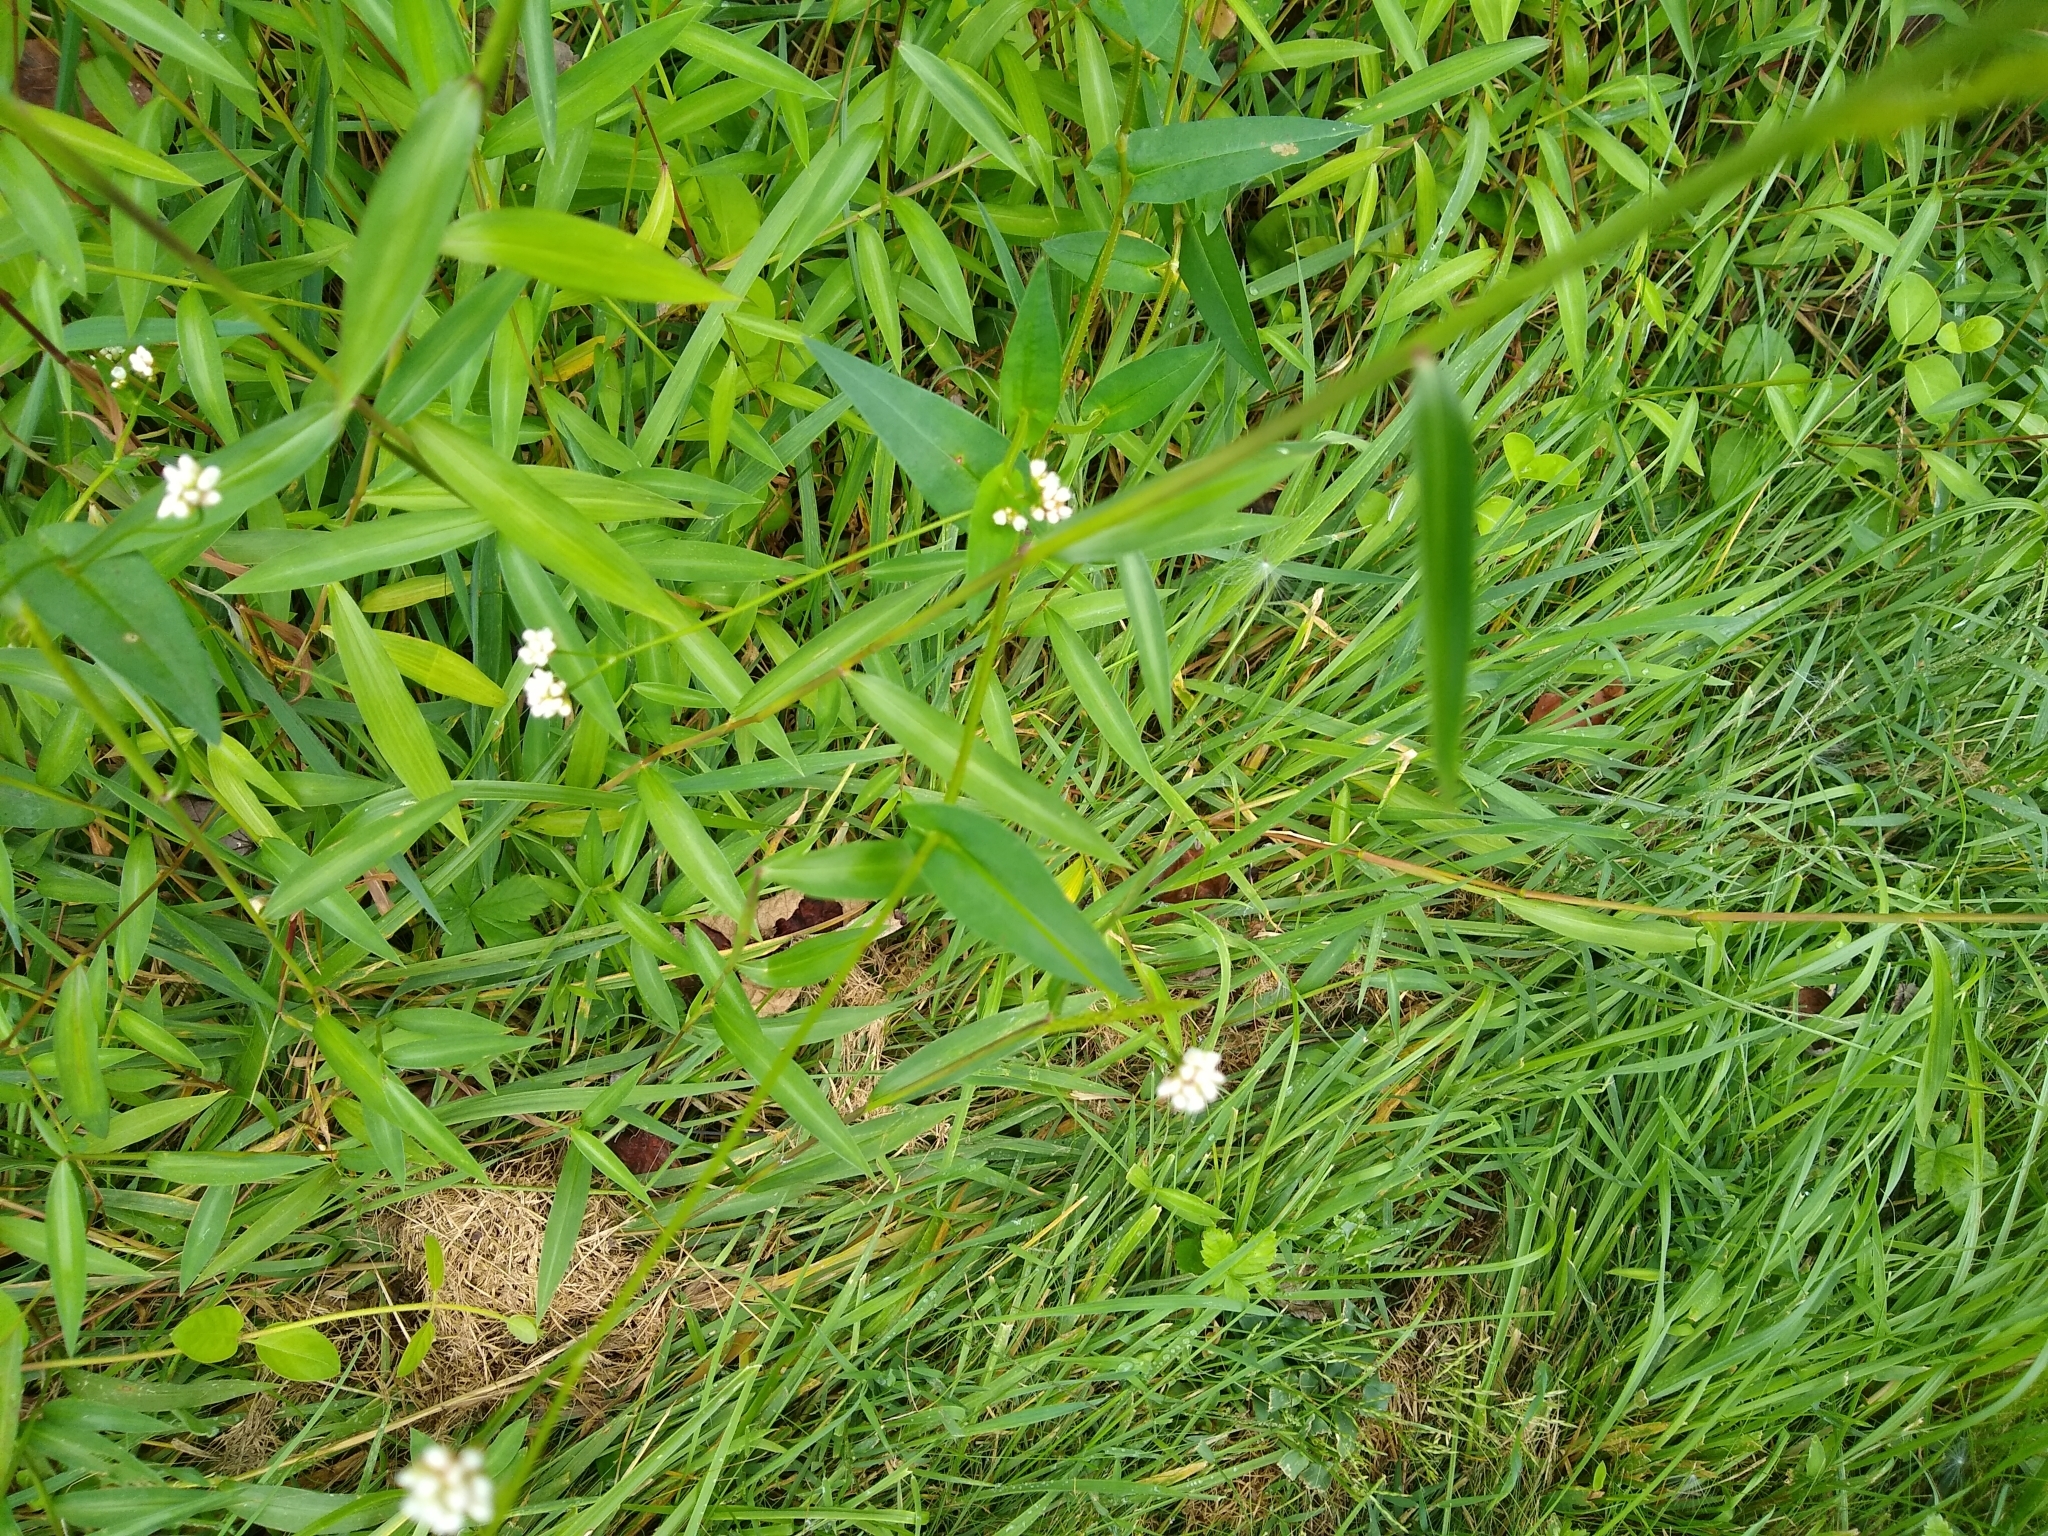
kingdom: Plantae
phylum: Tracheophyta
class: Magnoliopsida
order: Caryophyllales
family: Polygonaceae
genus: Persicaria
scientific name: Persicaria sagittata
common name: American tearthumb
